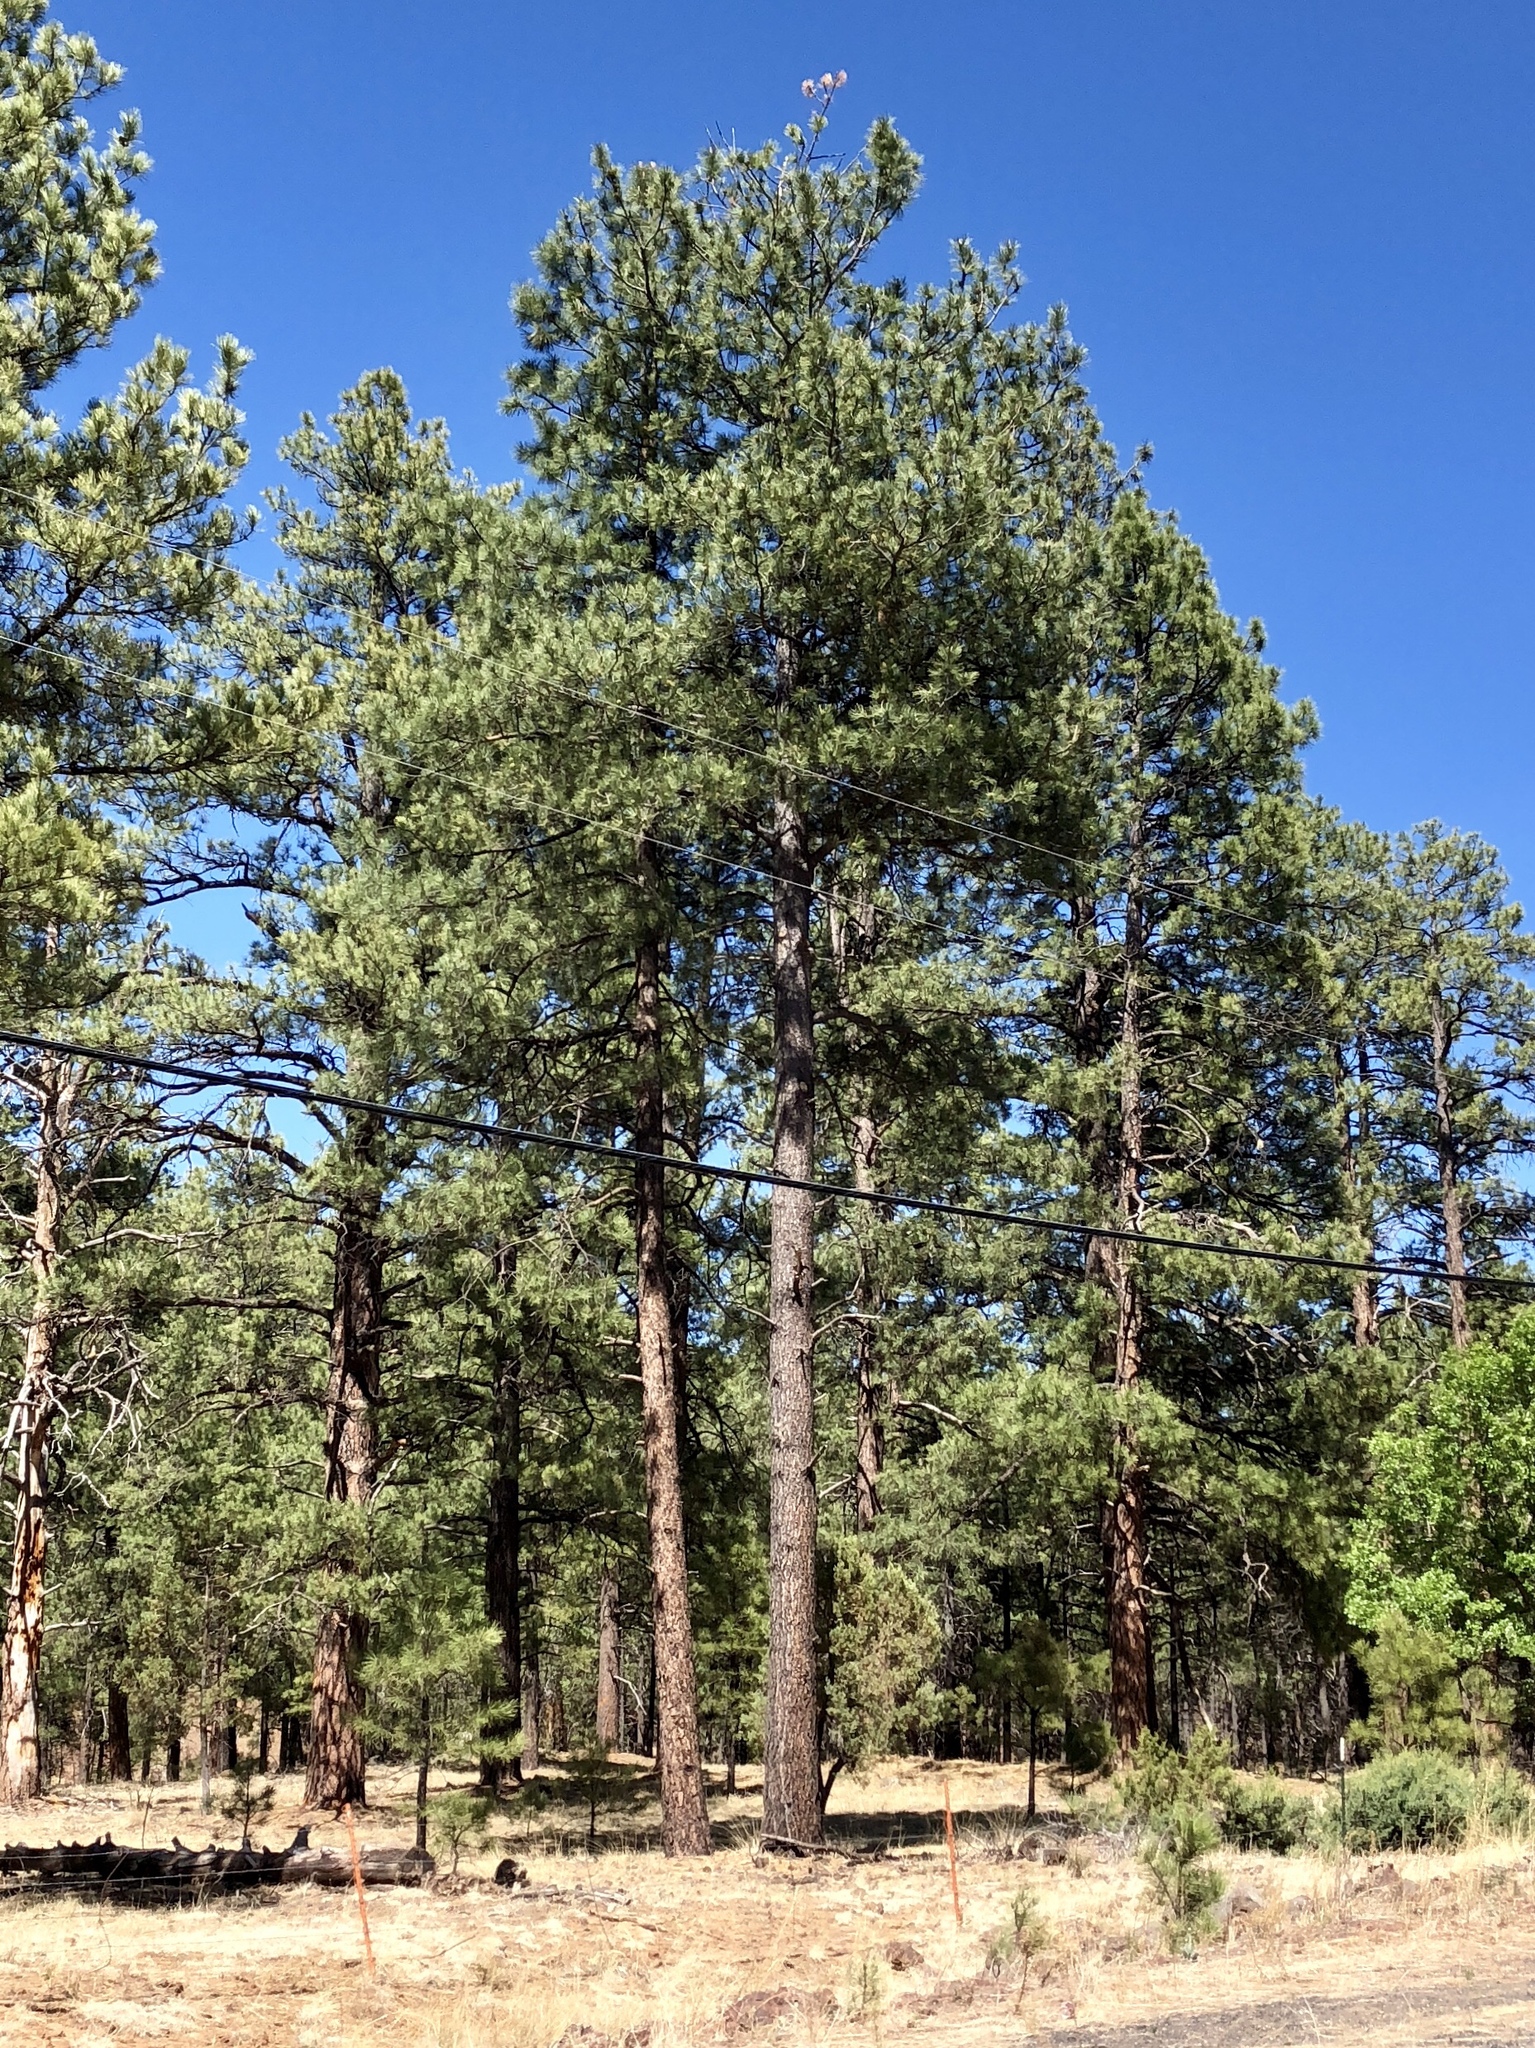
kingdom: Plantae
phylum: Tracheophyta
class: Pinopsida
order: Pinales
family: Pinaceae
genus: Pinus
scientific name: Pinus ponderosa
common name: Western yellow-pine
